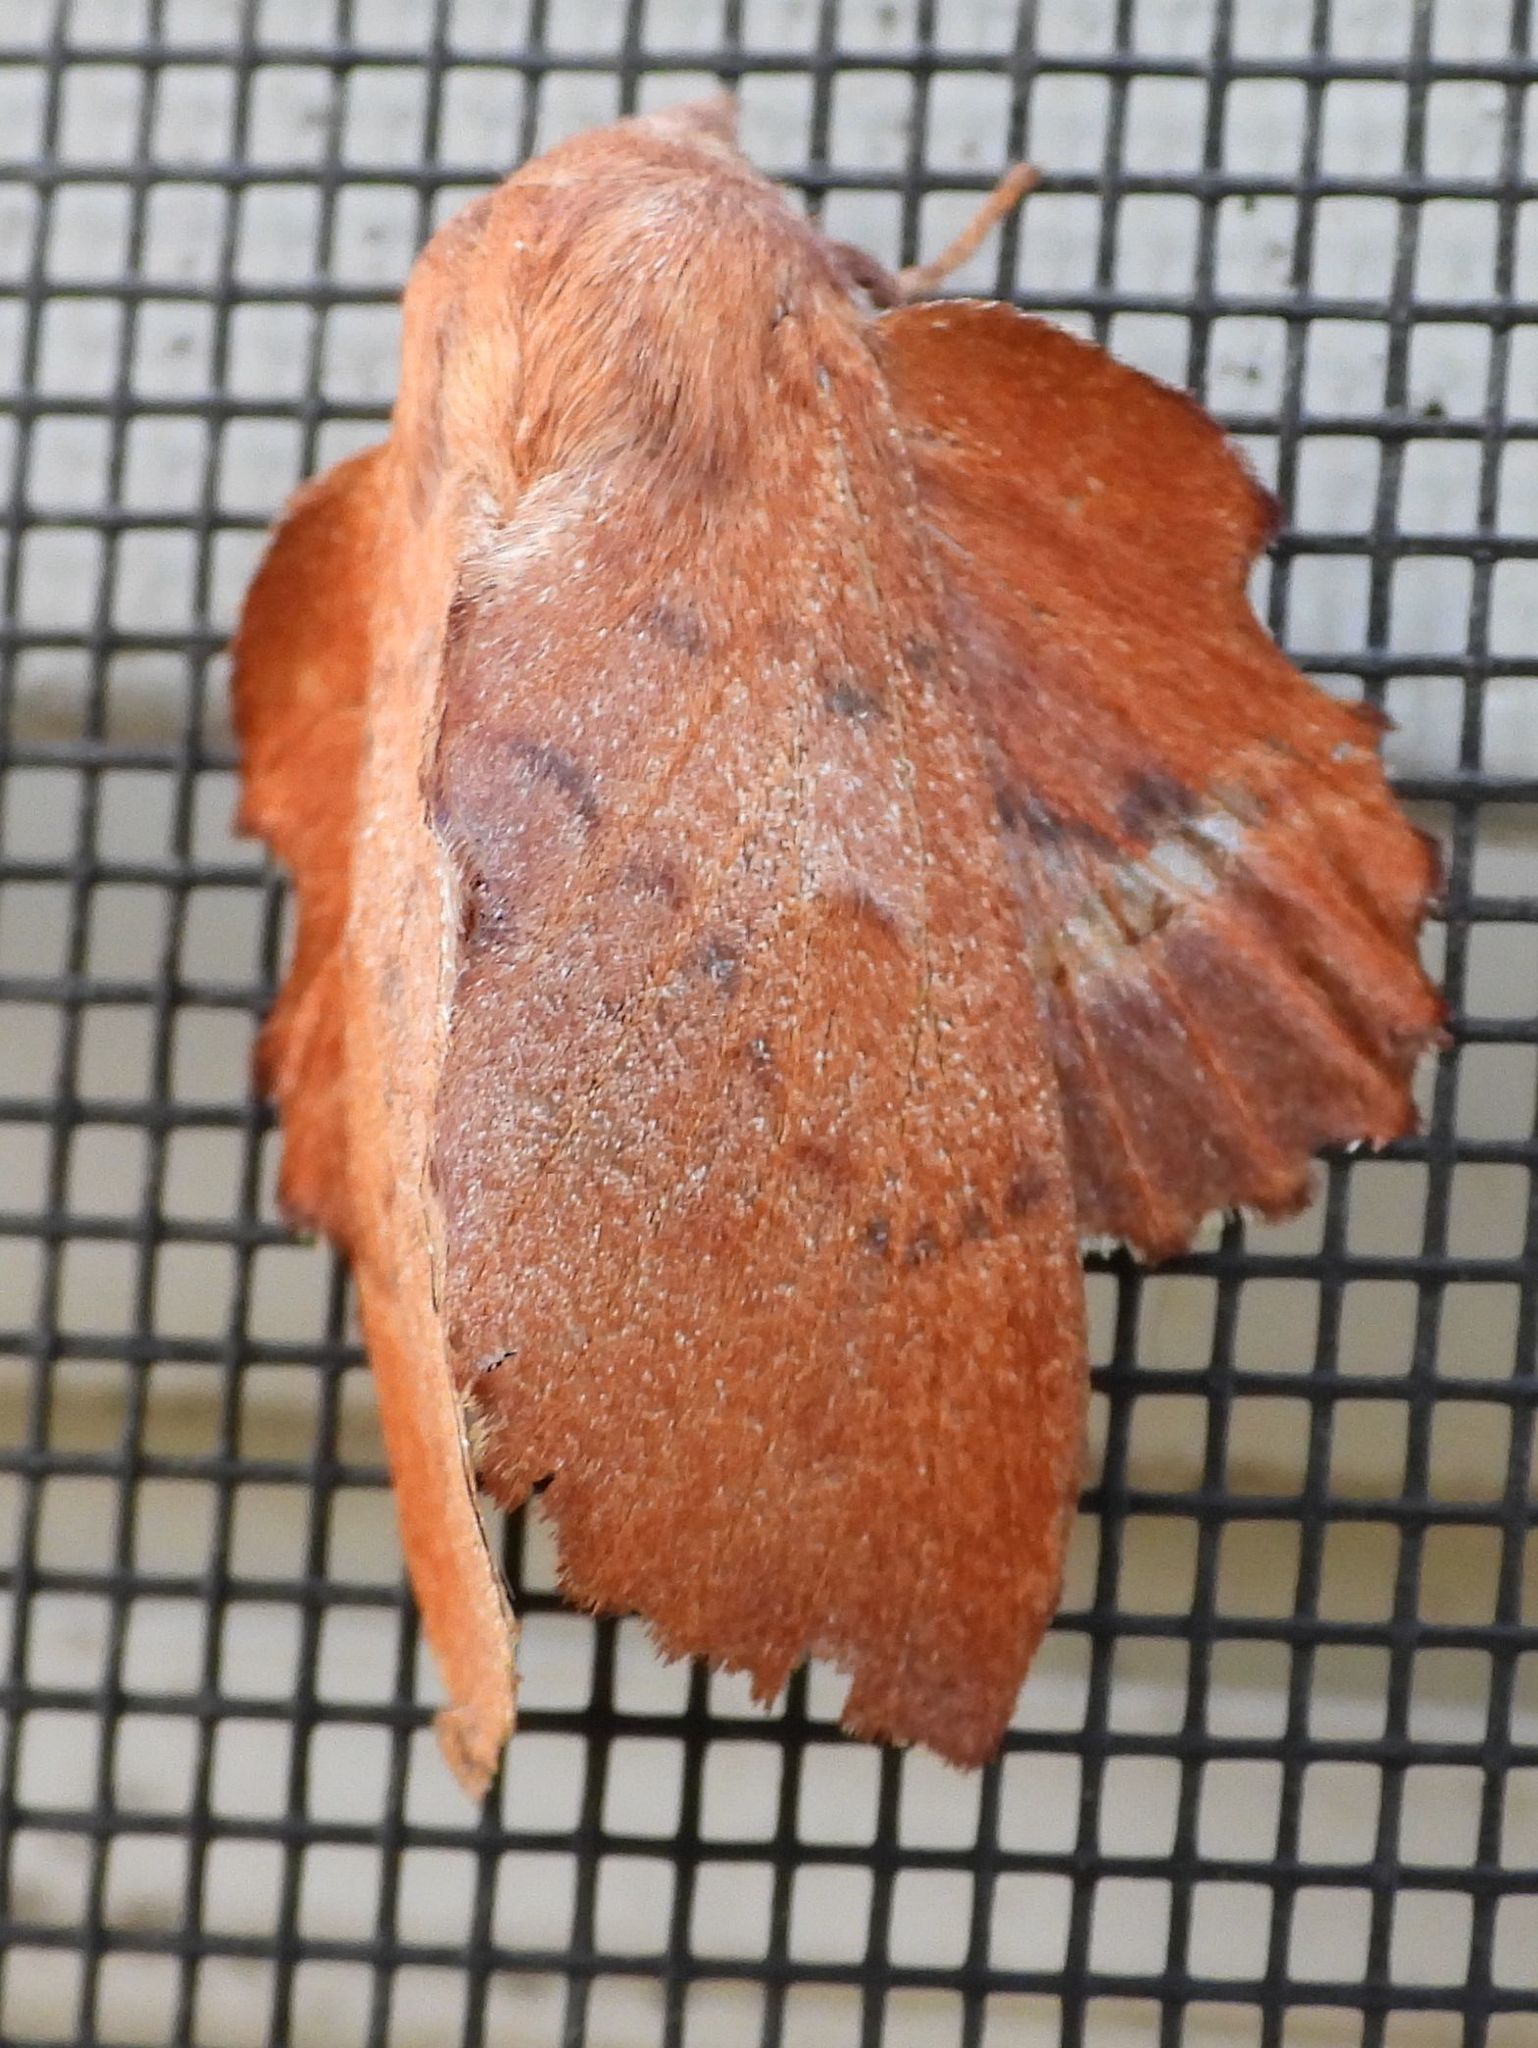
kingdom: Animalia
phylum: Arthropoda
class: Insecta
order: Lepidoptera
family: Lasiocampidae
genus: Phyllodesma
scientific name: Phyllodesma americana
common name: American lappet moth
